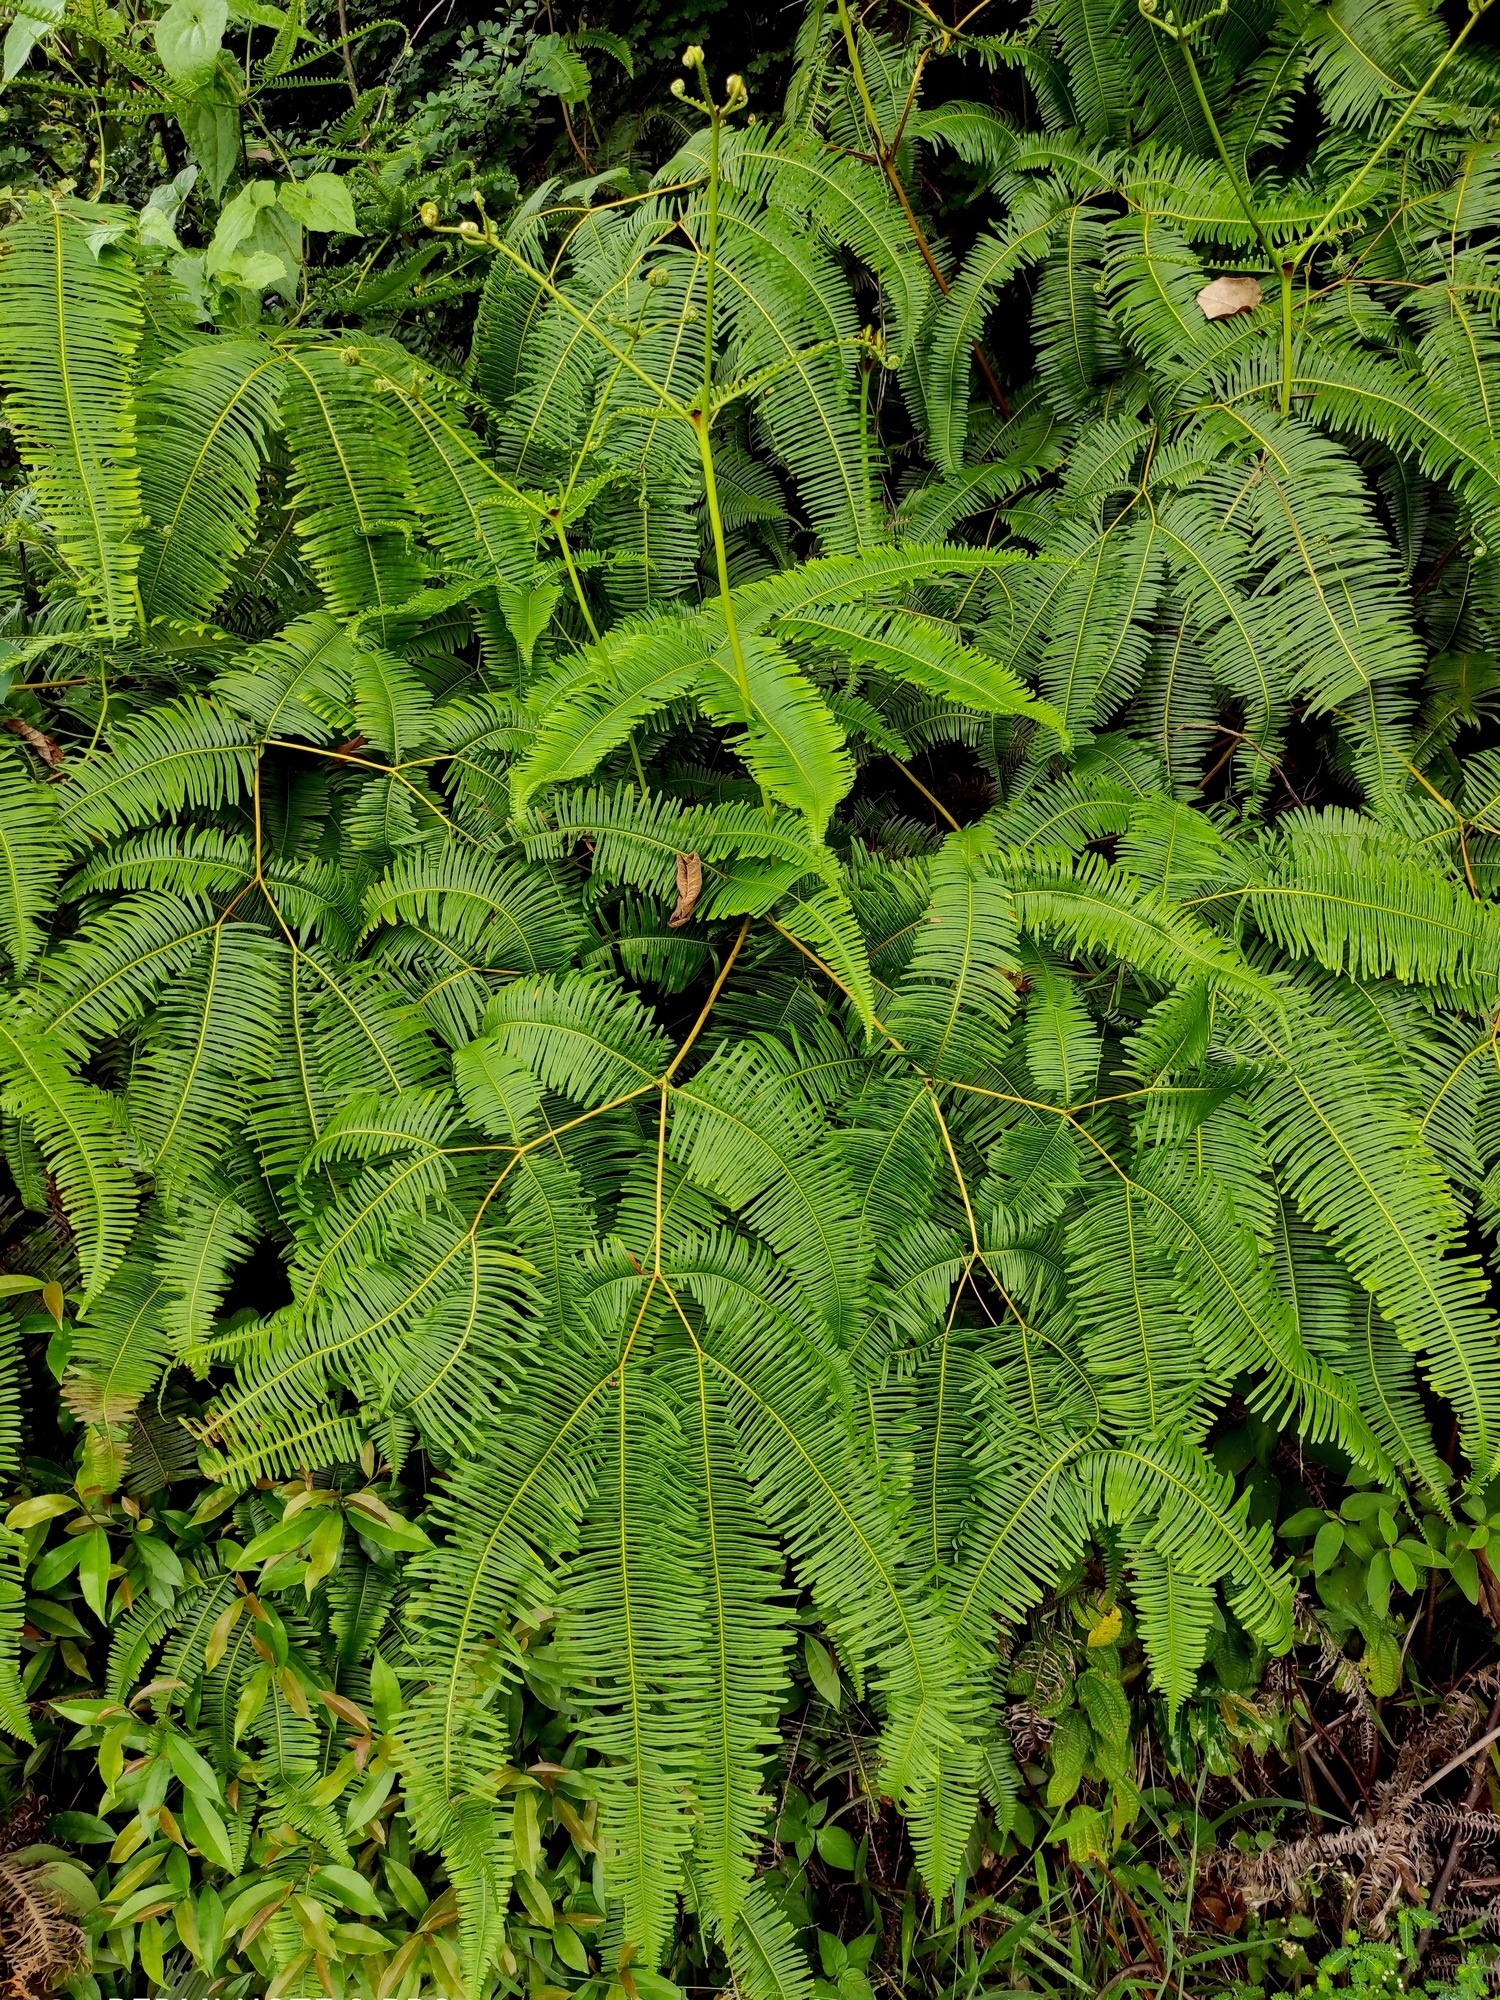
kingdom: Plantae
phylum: Tracheophyta
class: Polypodiopsida
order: Gleicheniales
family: Gleicheniaceae
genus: Dicranopteris
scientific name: Dicranopteris linearis
